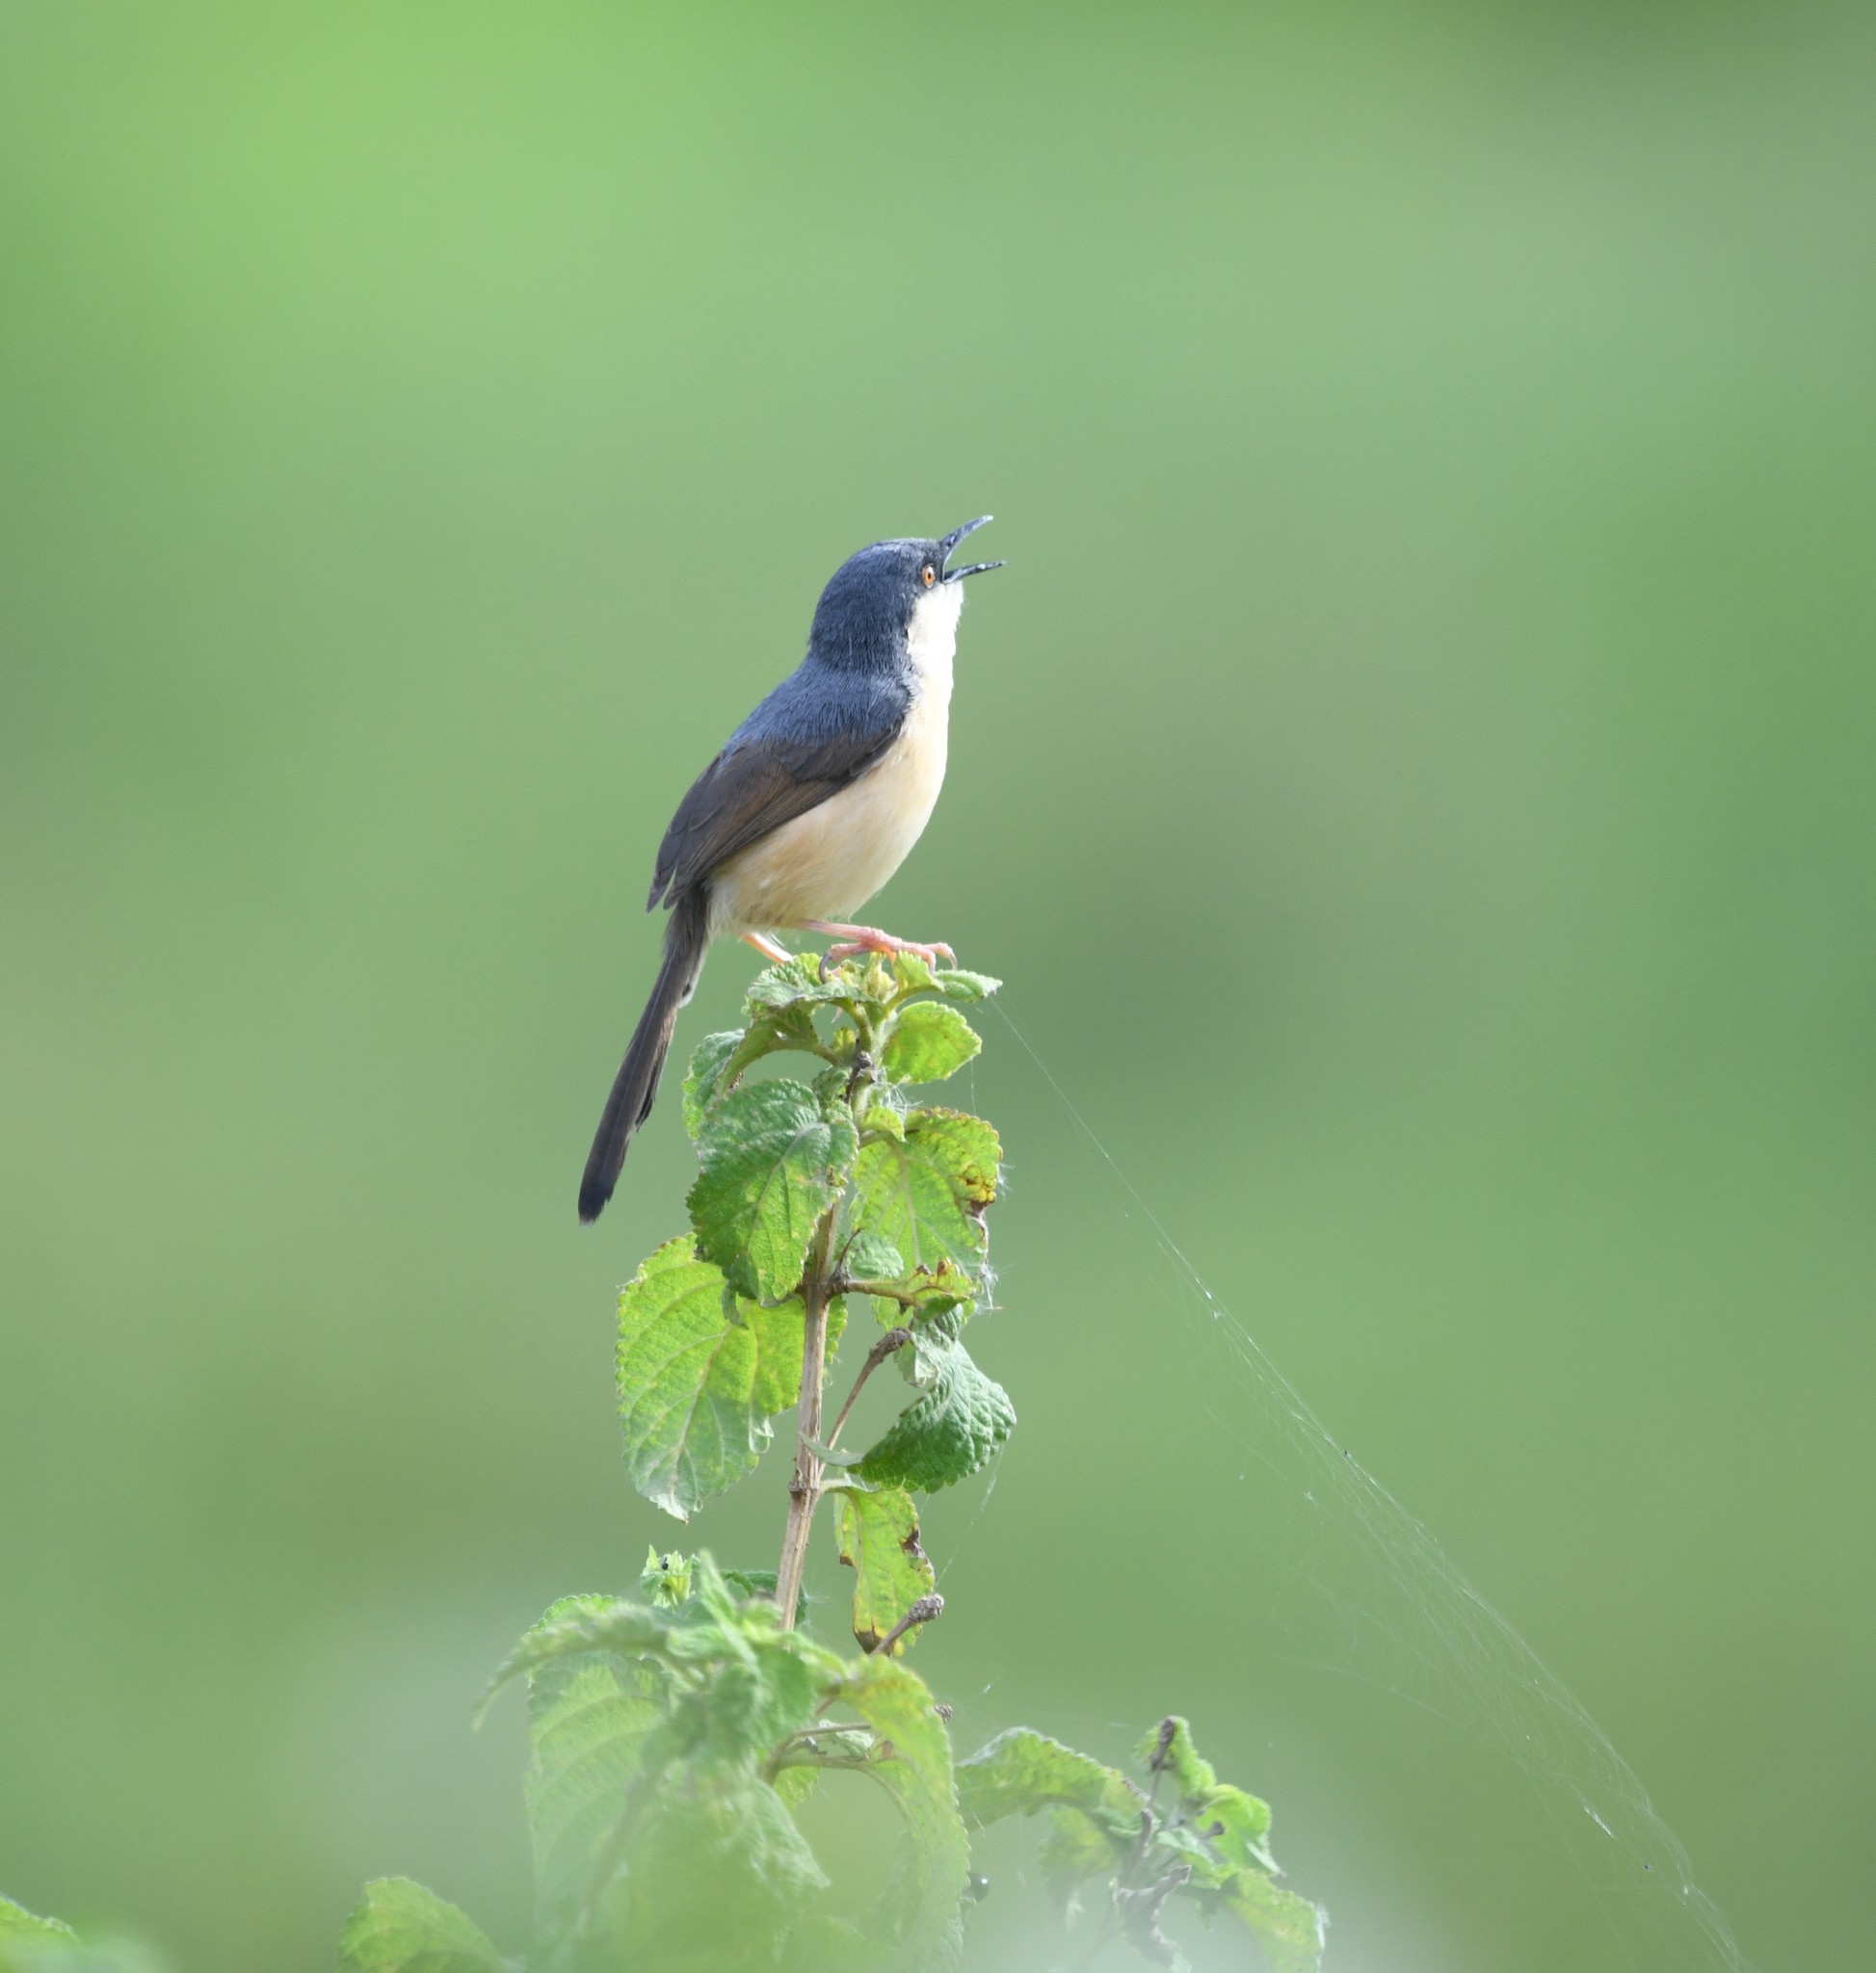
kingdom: Animalia
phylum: Chordata
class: Aves
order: Passeriformes
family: Cisticolidae
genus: Prinia
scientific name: Prinia socialis
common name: Ashy prinia
